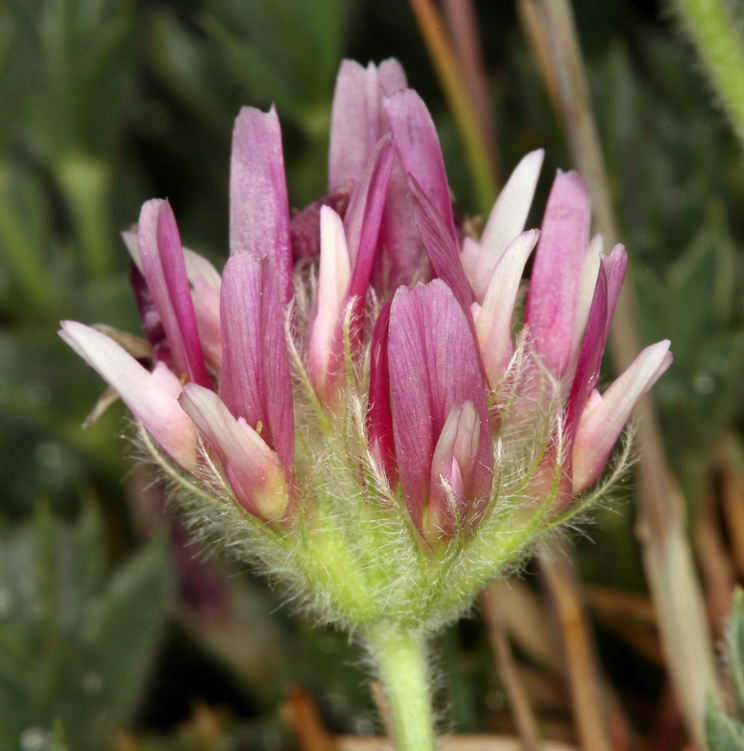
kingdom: Plantae
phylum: Tracheophyta
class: Magnoliopsida
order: Fabales
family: Fabaceae
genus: Trifolium
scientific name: Trifolium andersonii
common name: Anderson's clover
